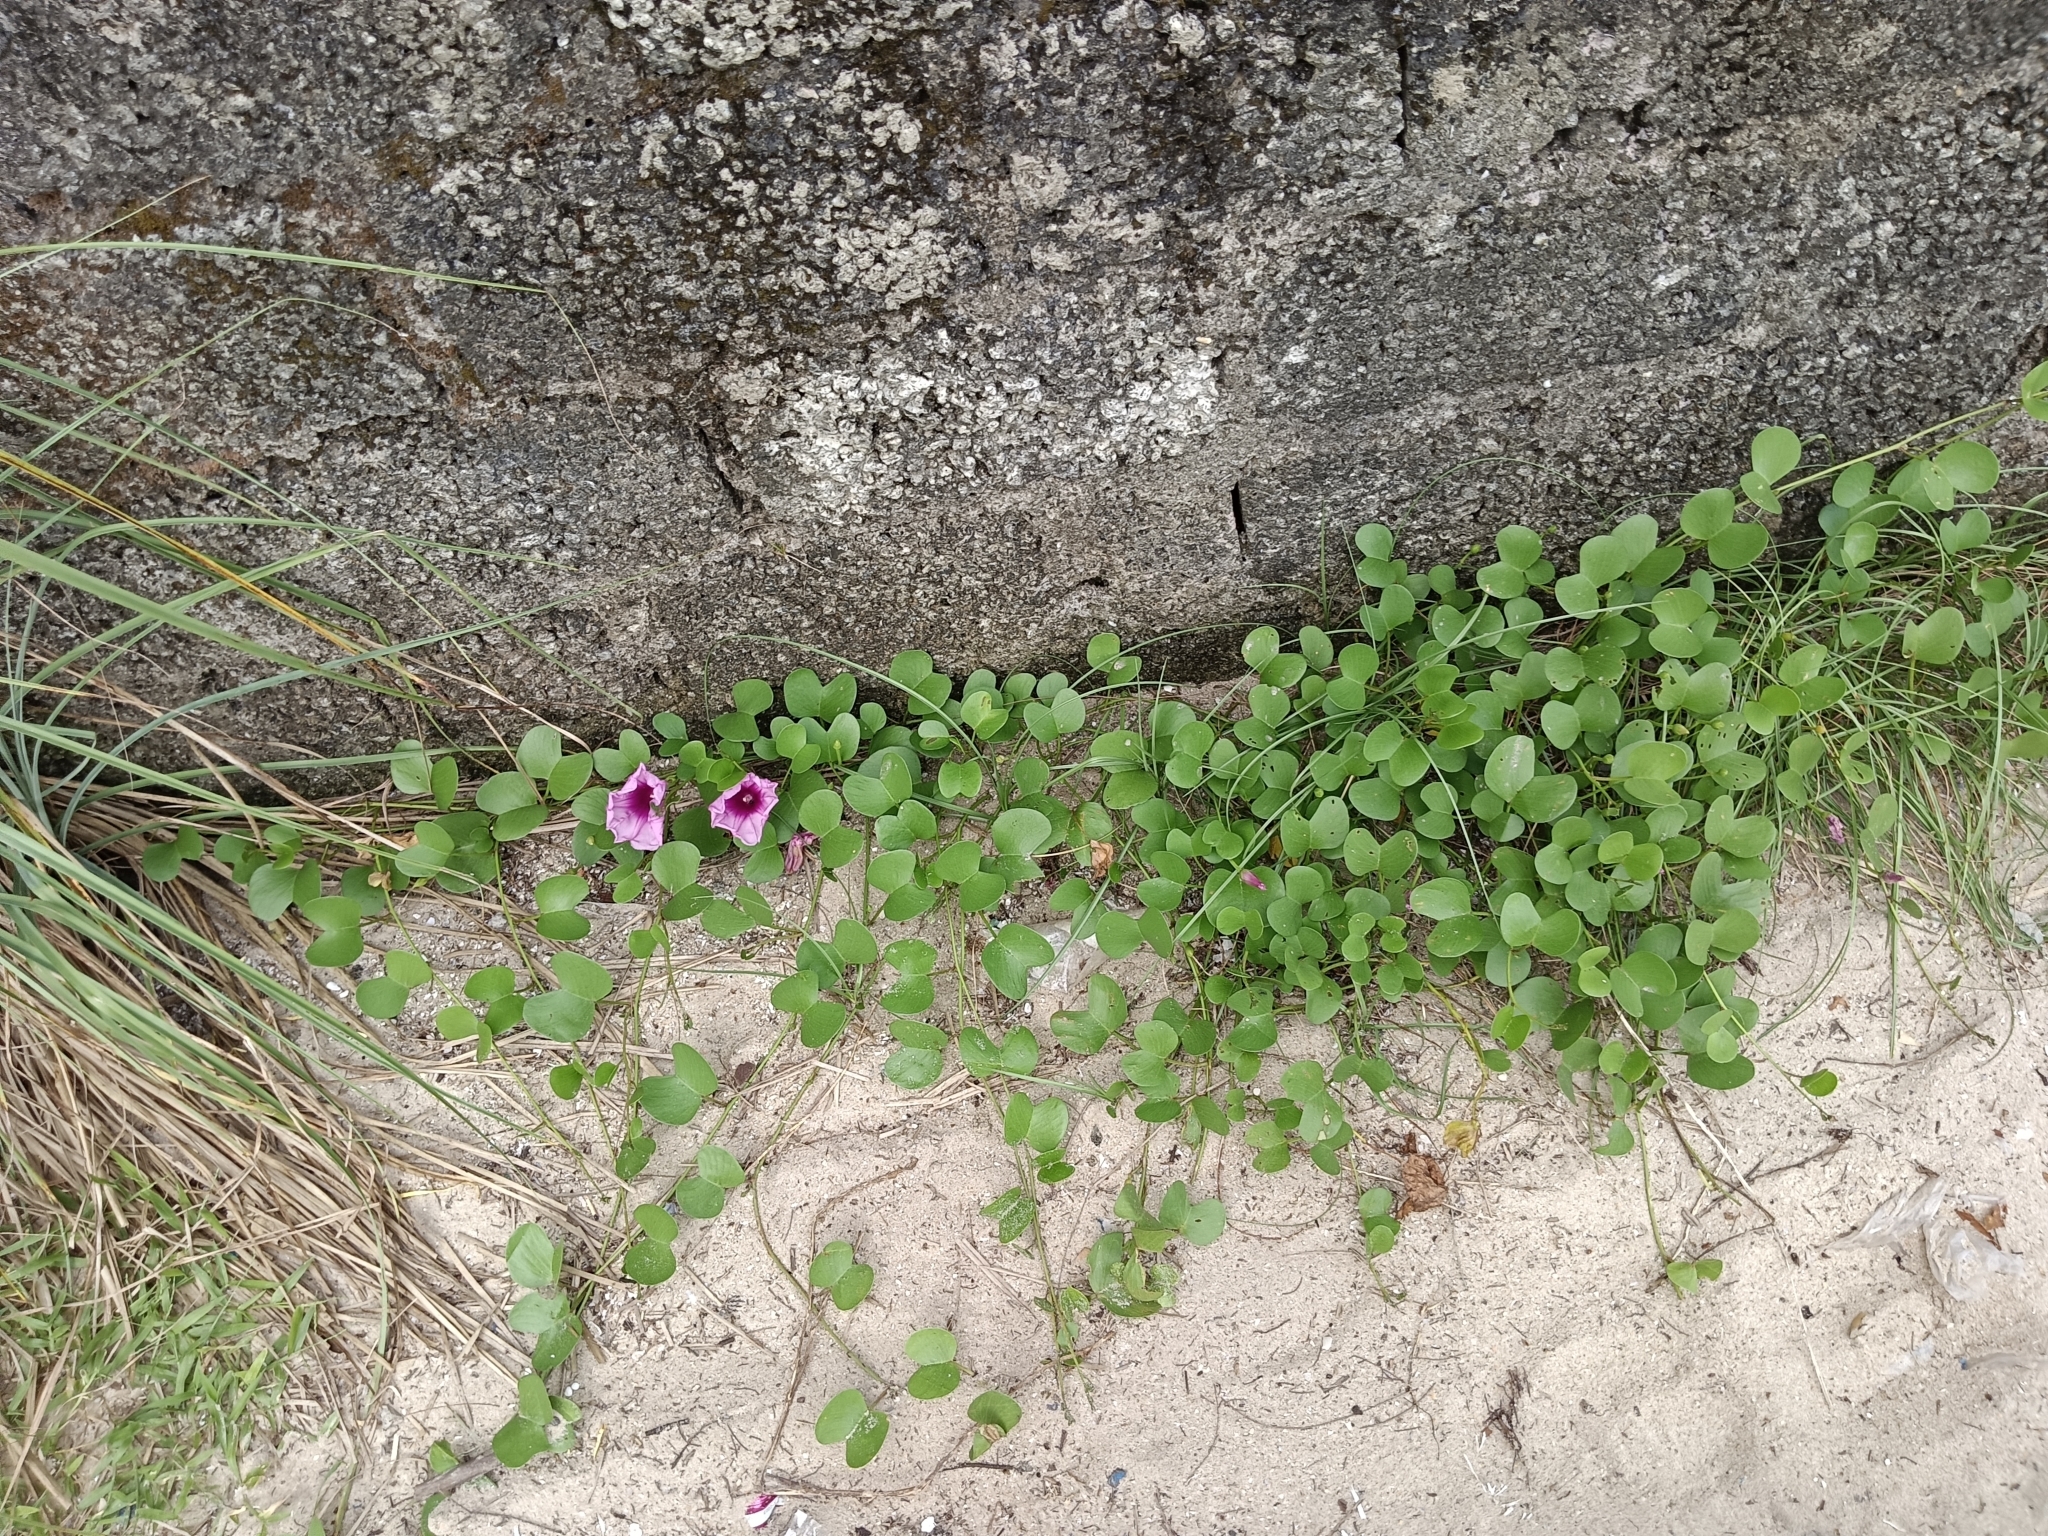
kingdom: Plantae
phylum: Tracheophyta
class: Magnoliopsida
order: Solanales
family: Convolvulaceae
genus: Ipomoea
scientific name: Ipomoea pes-caprae
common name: Beach morning glory
